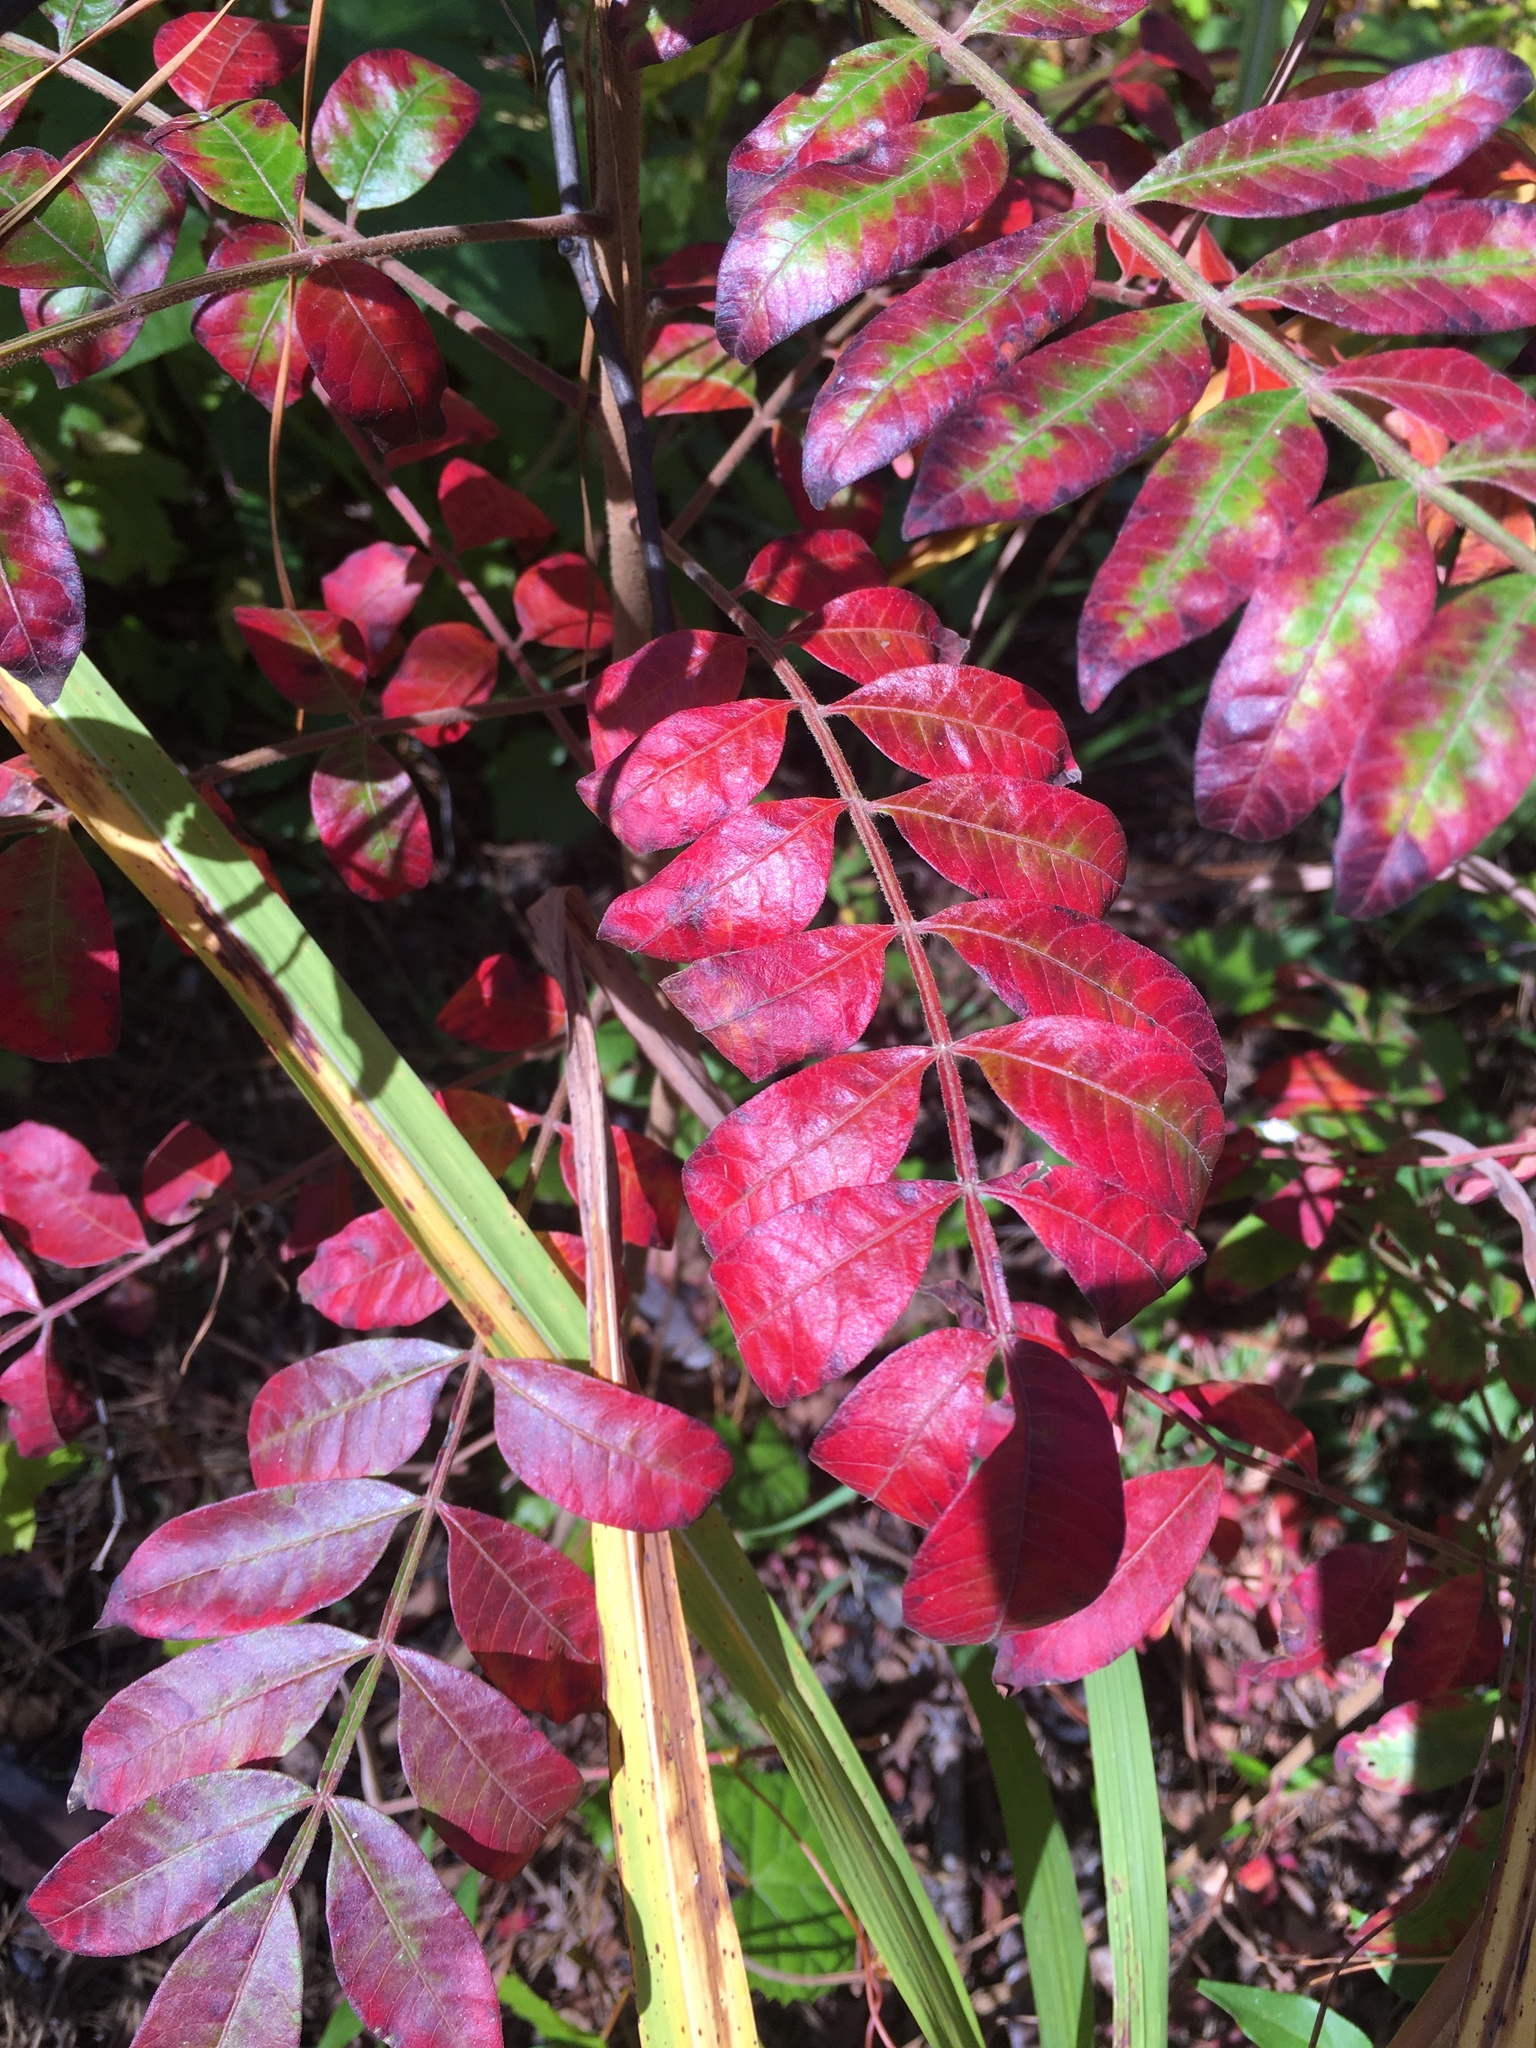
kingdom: Plantae
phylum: Tracheophyta
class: Magnoliopsida
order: Sapindales
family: Anacardiaceae
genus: Rhus
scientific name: Rhus copallina
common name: Shining sumac
